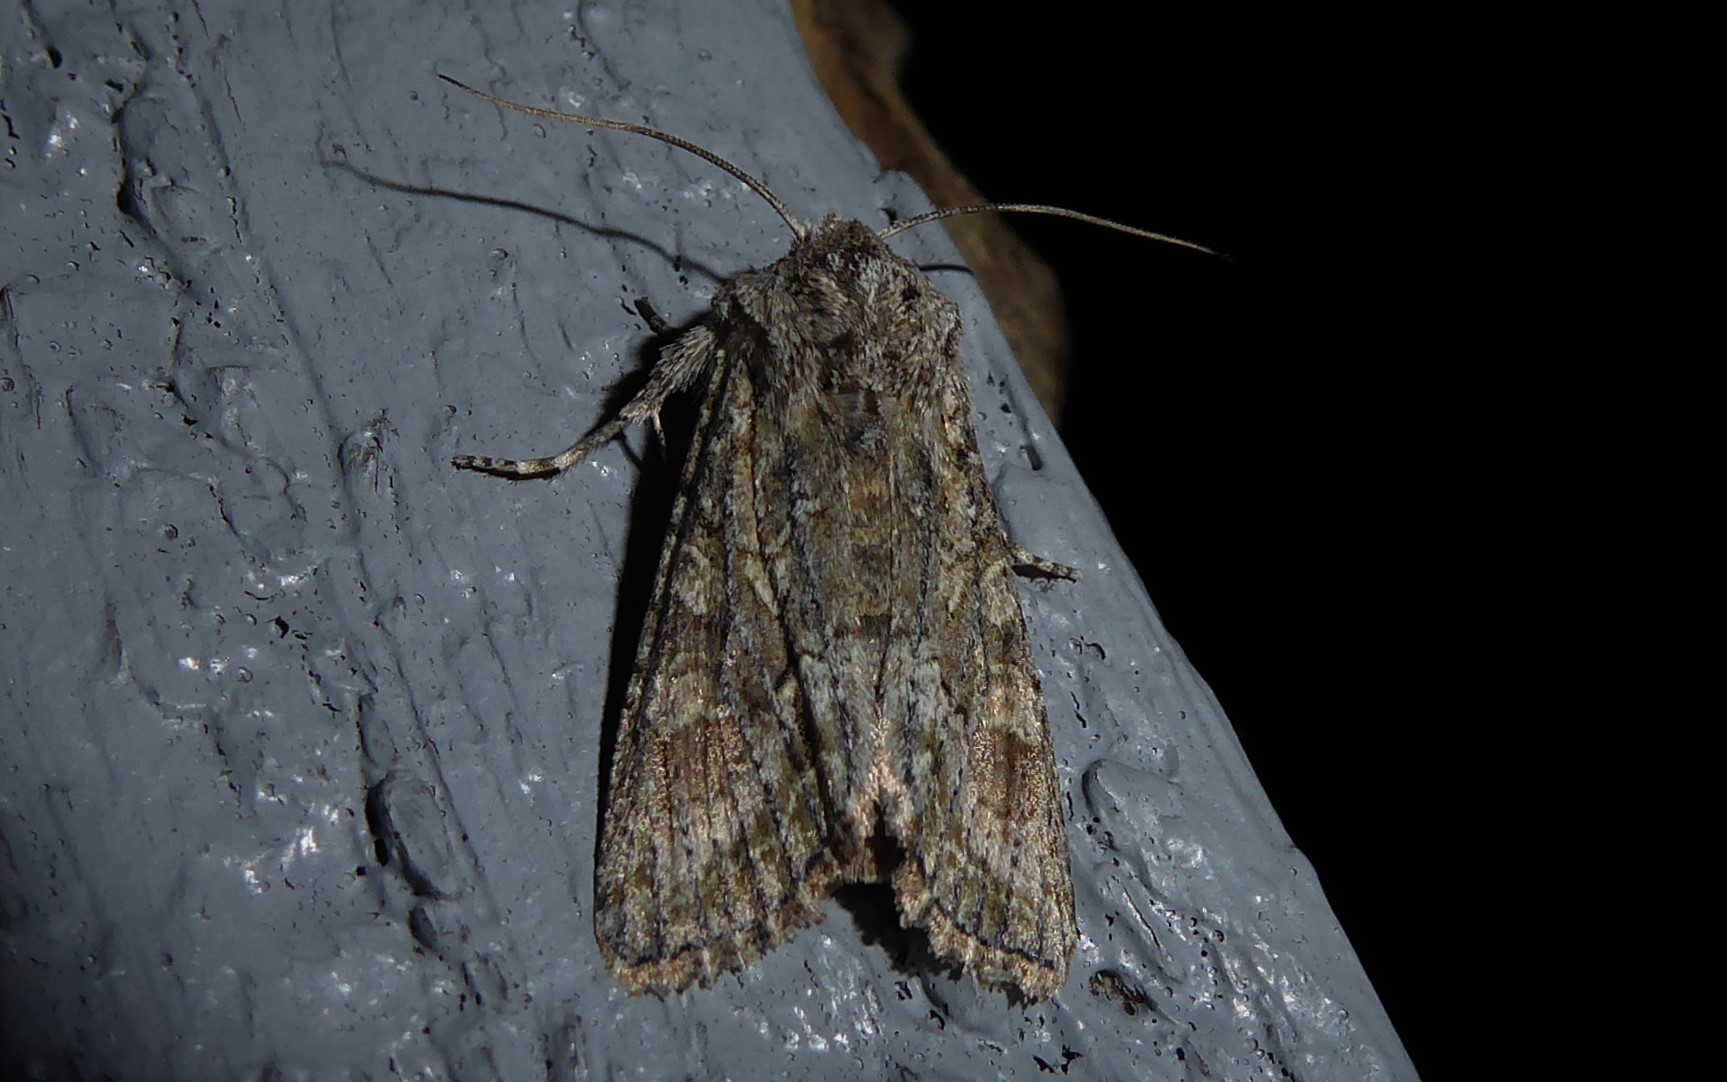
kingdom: Animalia
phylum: Arthropoda
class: Insecta
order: Lepidoptera
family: Noctuidae
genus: Ichneutica
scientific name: Ichneutica mutans
